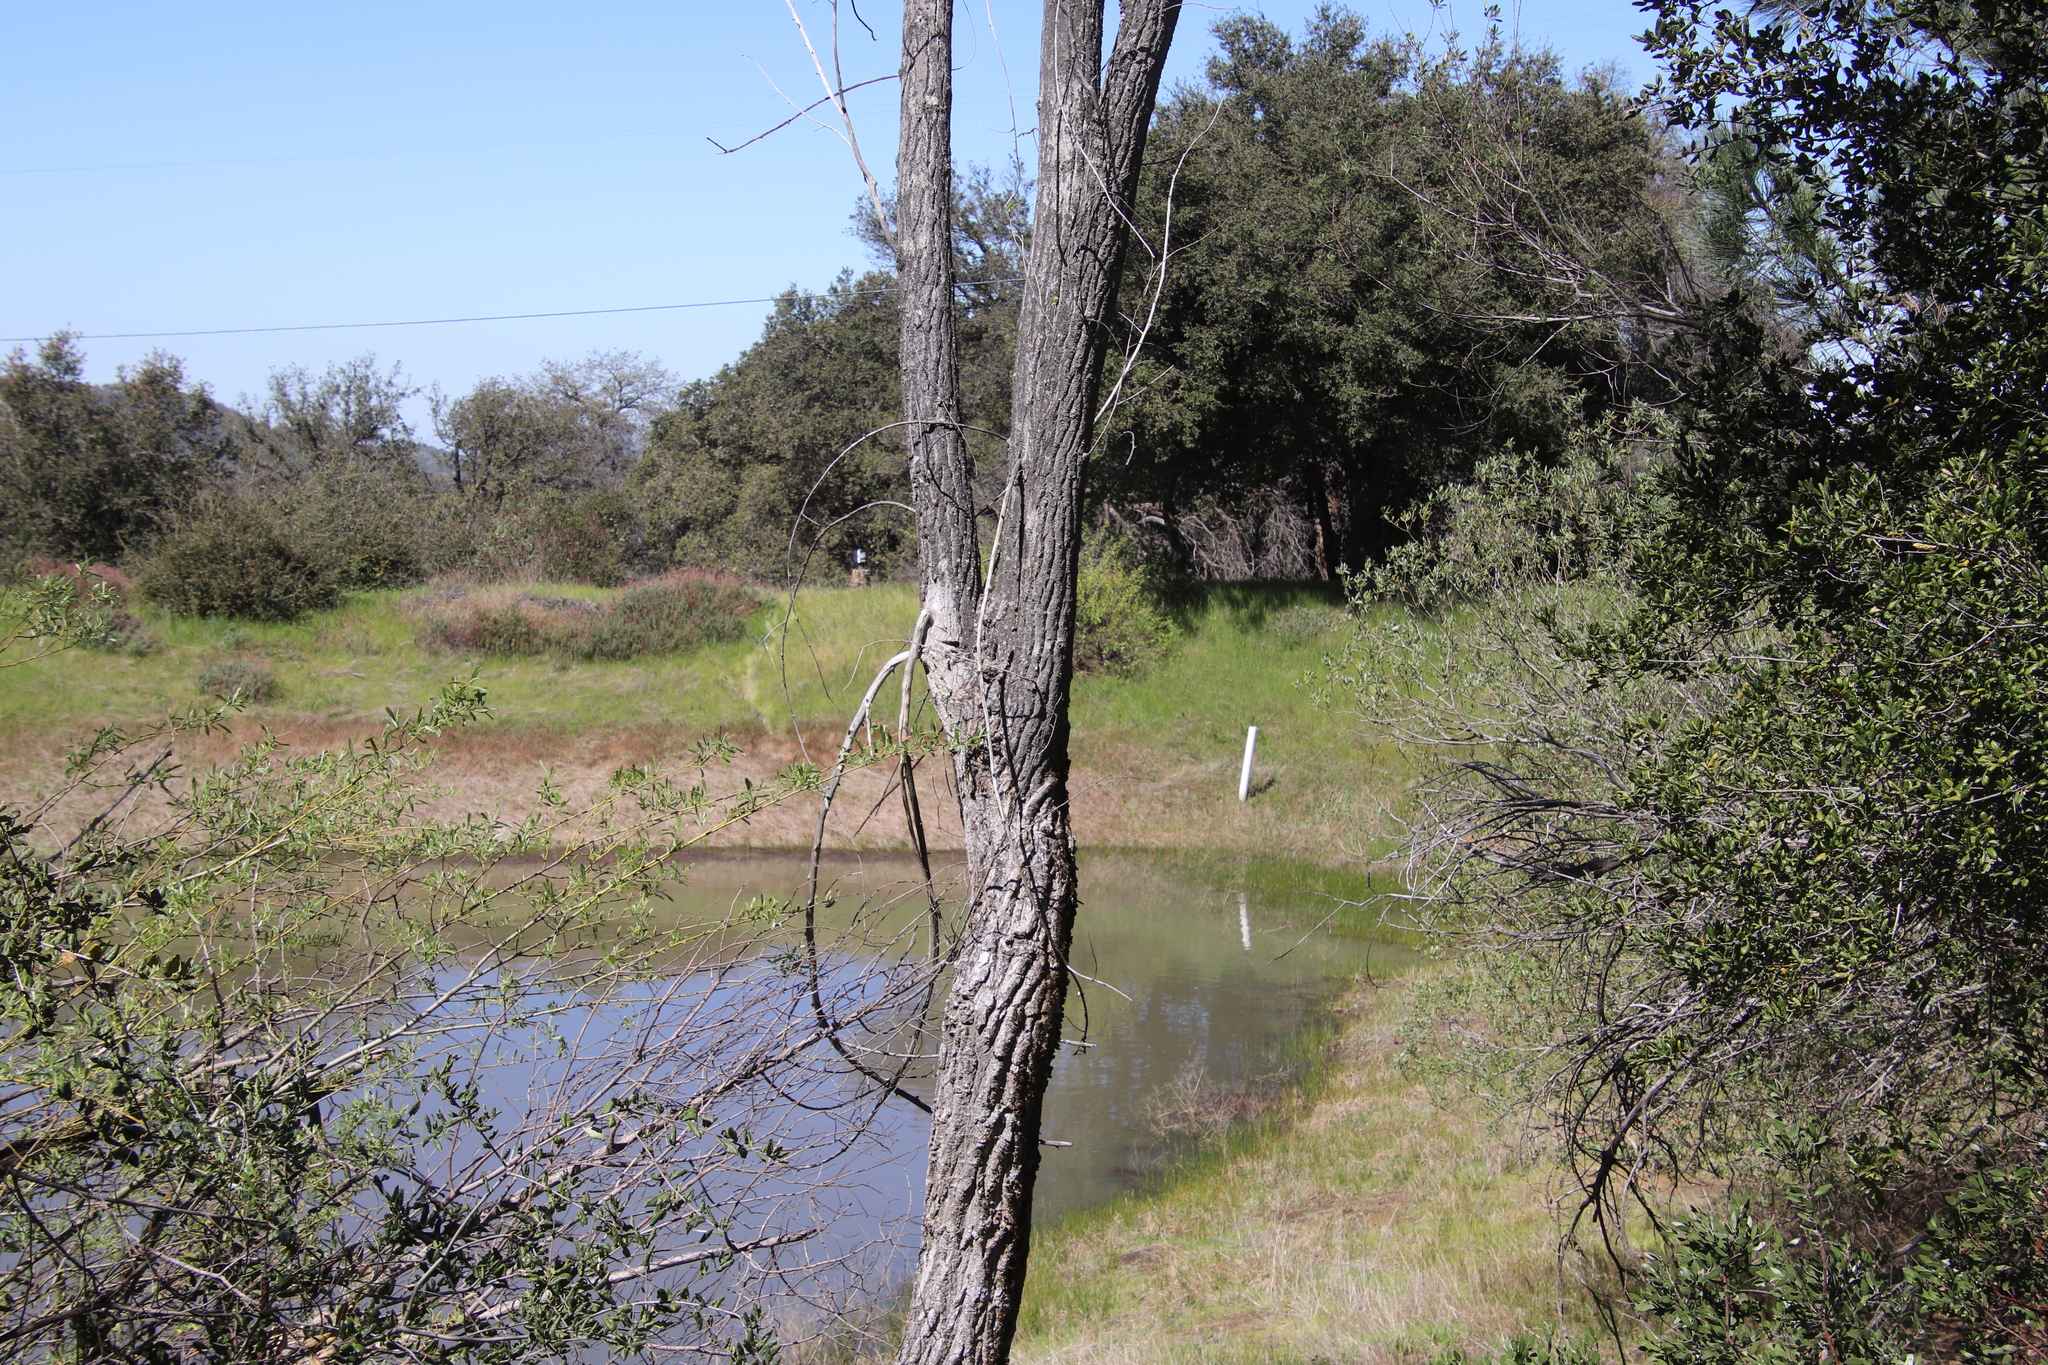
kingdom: Plantae
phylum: Tracheophyta
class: Magnoliopsida
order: Malpighiales
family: Salicaceae
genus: Populus
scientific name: Populus fremontii
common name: Fremont's cottonwood
